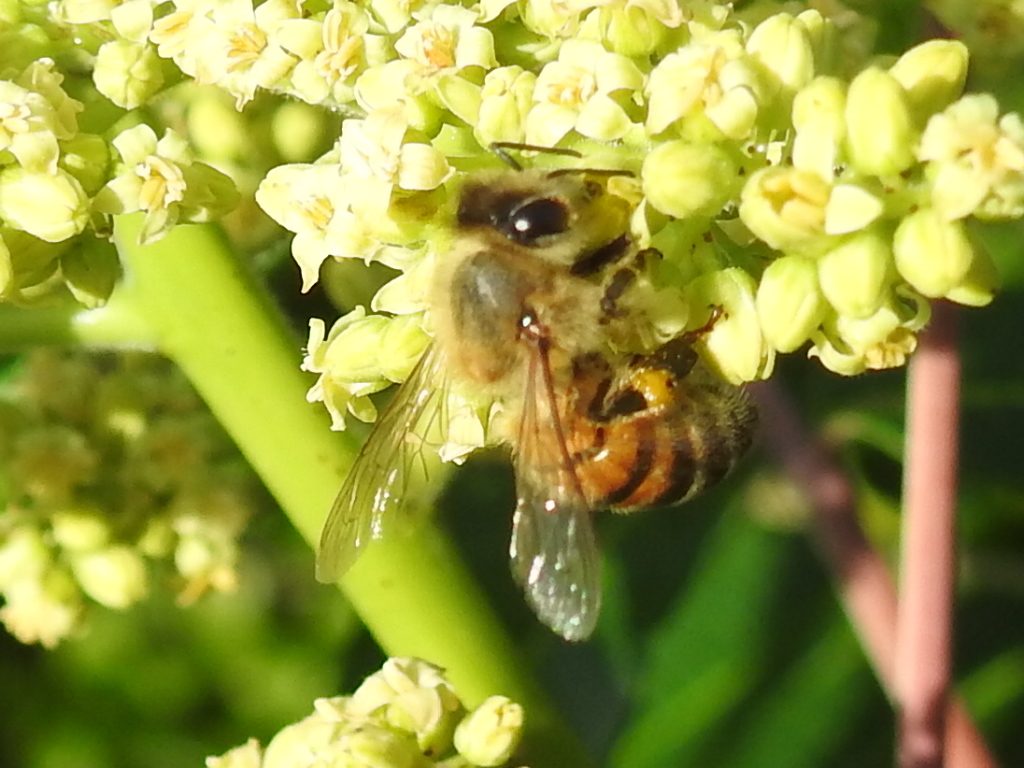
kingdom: Animalia
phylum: Arthropoda
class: Insecta
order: Hymenoptera
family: Apidae
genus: Apis
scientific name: Apis mellifera
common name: Honey bee
